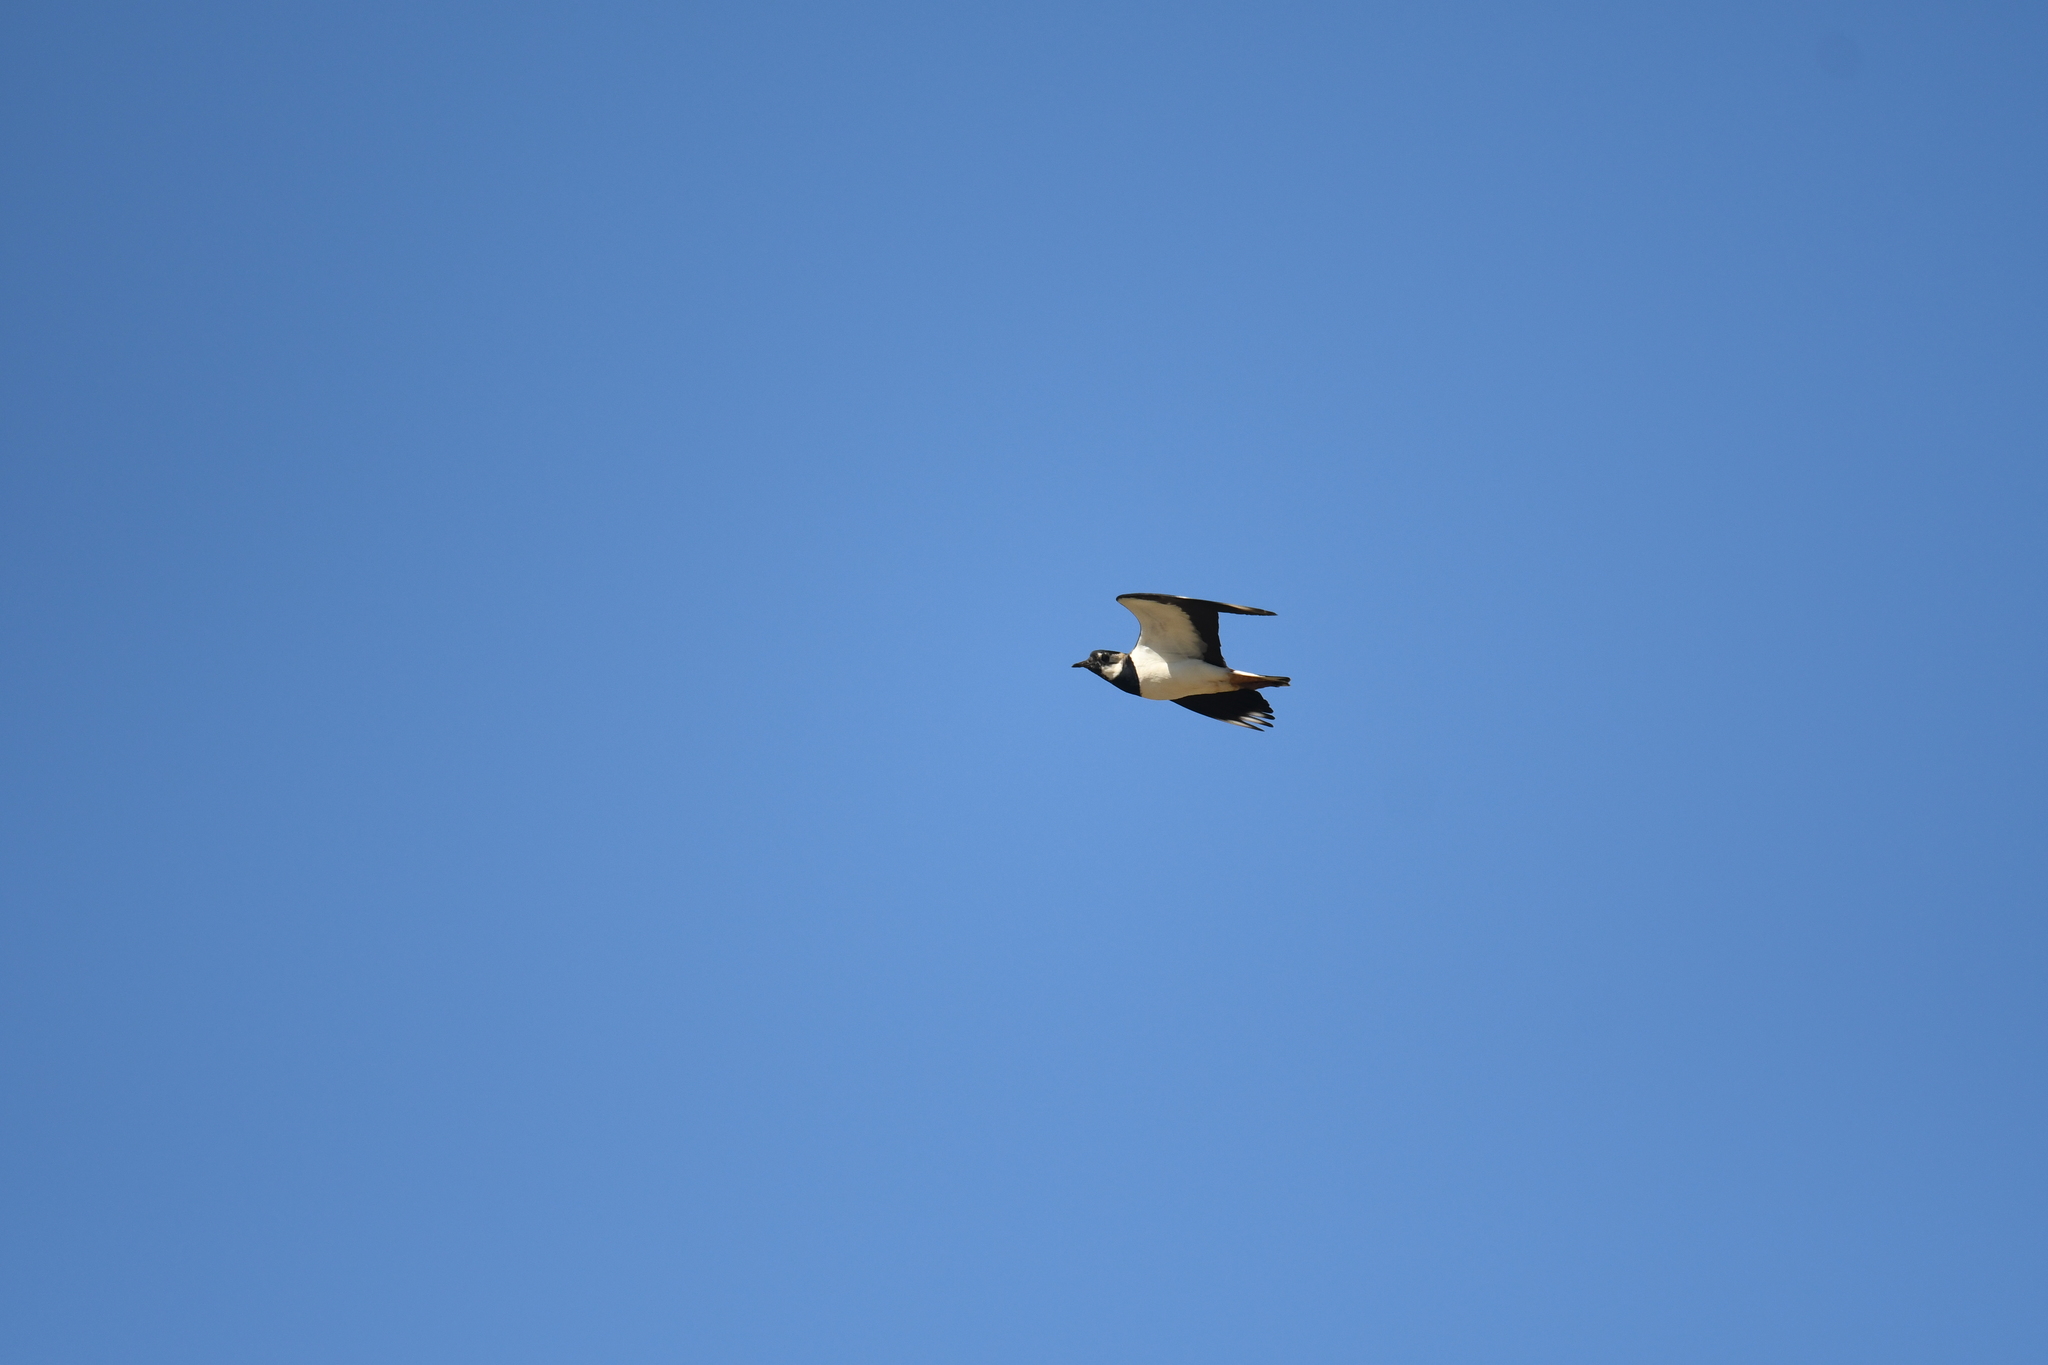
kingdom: Animalia
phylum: Chordata
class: Aves
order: Charadriiformes
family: Charadriidae
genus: Vanellus
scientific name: Vanellus vanellus
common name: Northern lapwing
